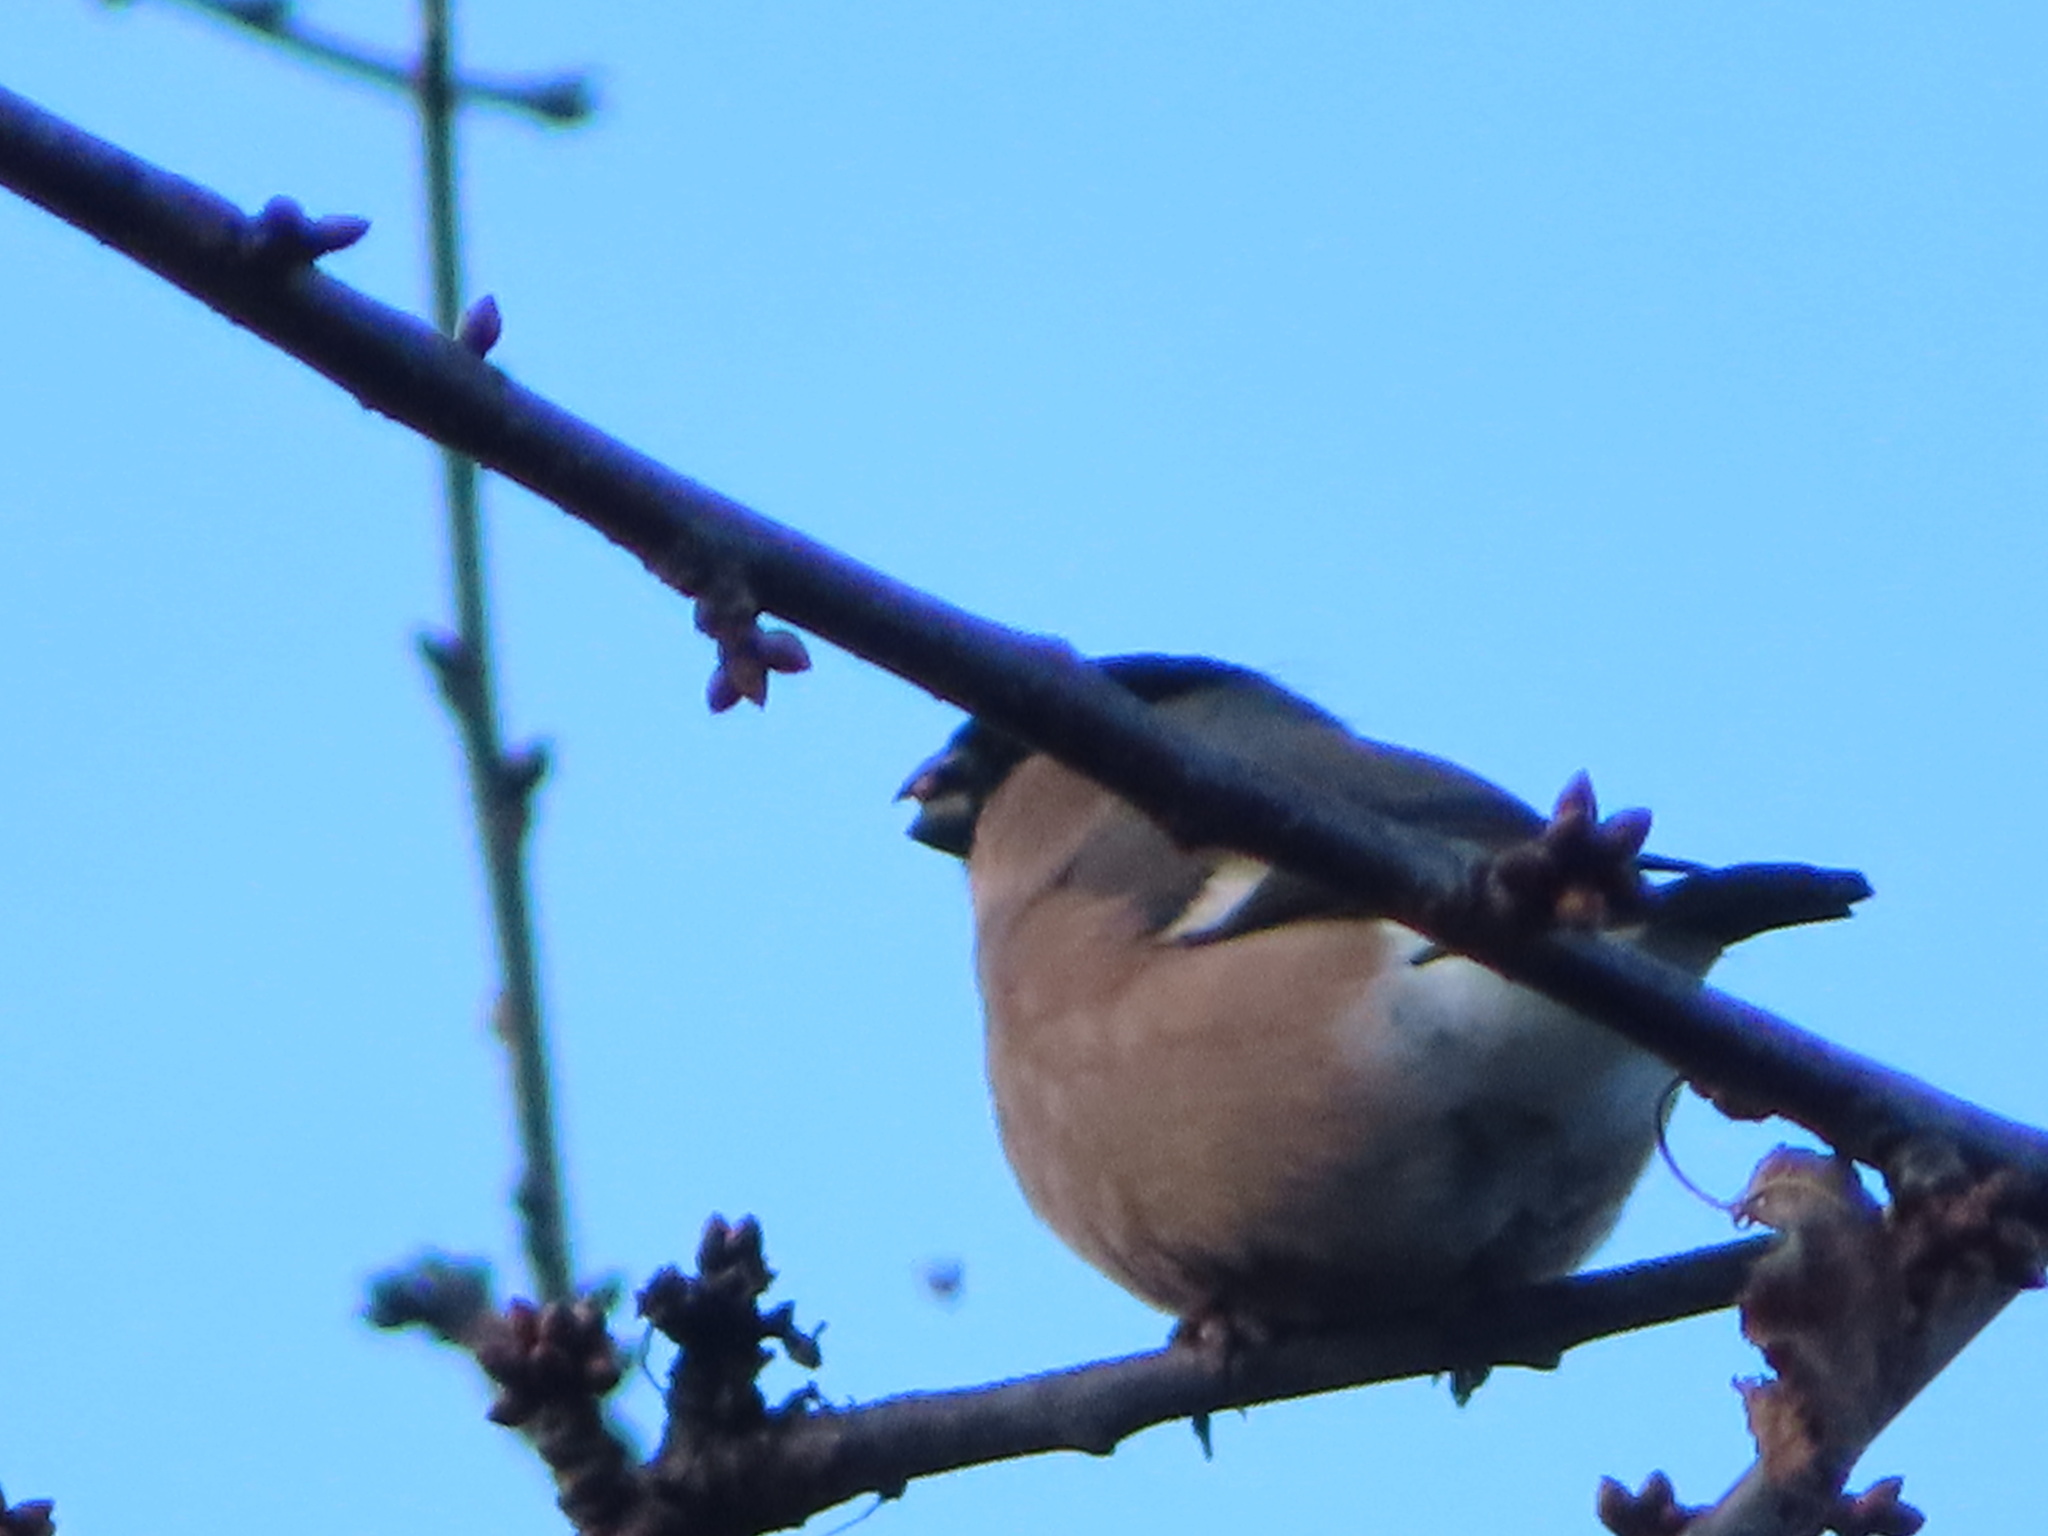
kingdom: Animalia
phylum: Chordata
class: Aves
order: Passeriformes
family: Fringillidae
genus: Pyrrhula
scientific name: Pyrrhula pyrrhula
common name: Eurasian bullfinch
